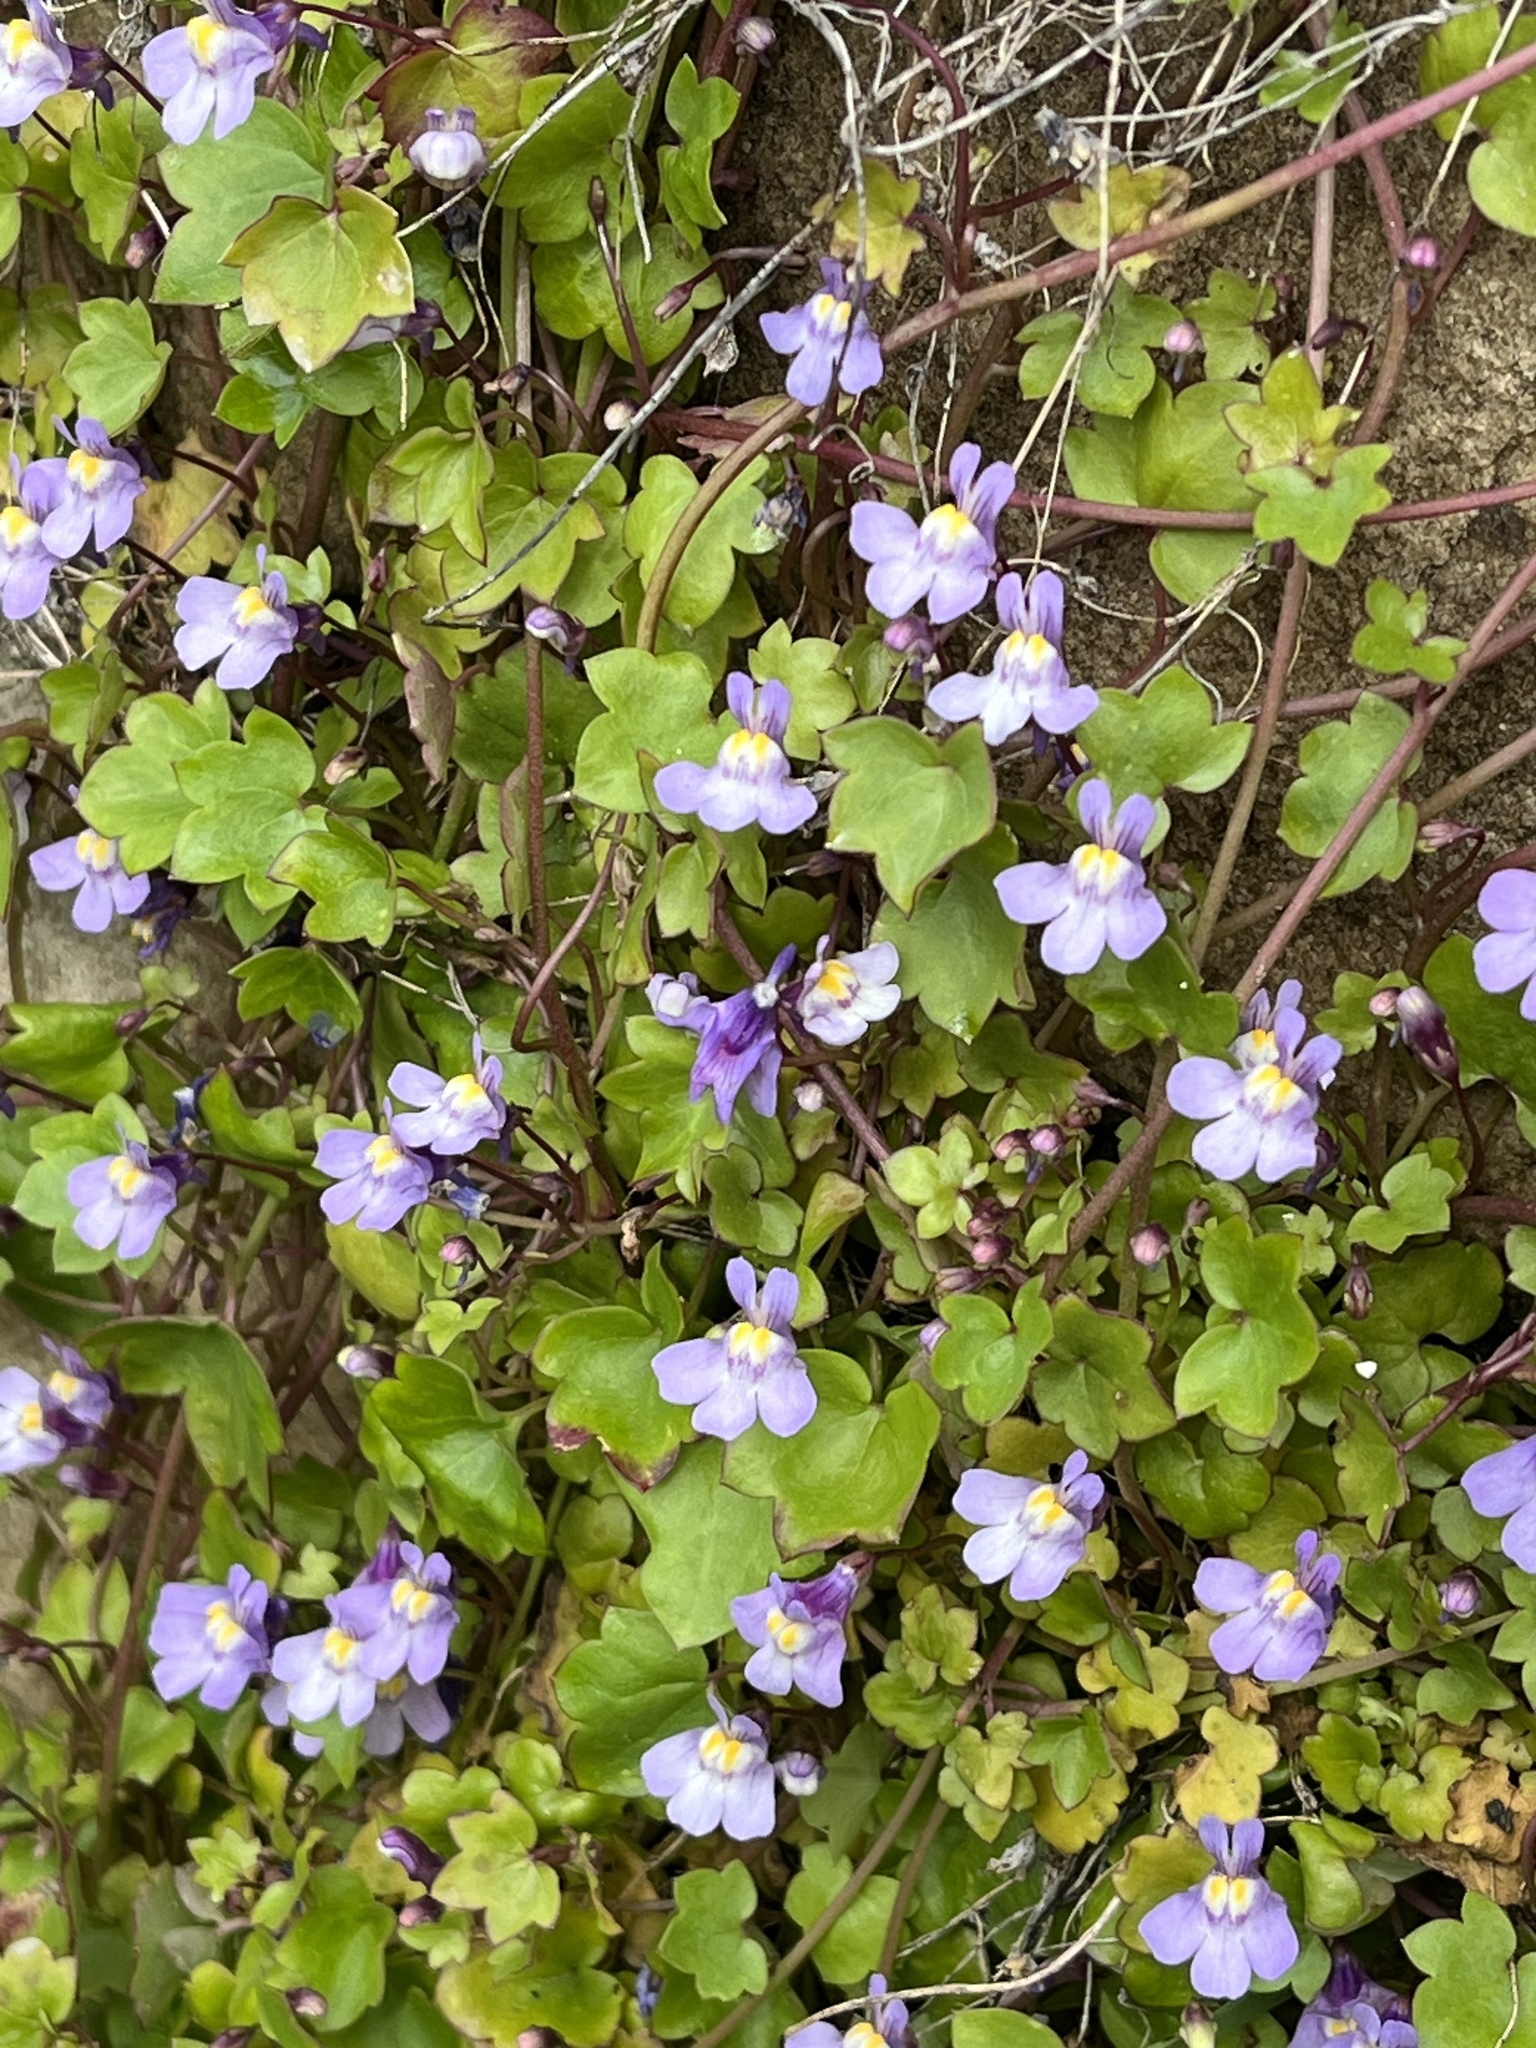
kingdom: Plantae
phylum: Tracheophyta
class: Magnoliopsida
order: Lamiales
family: Plantaginaceae
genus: Cymbalaria
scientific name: Cymbalaria muralis
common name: Ivy-leaved toadflax
